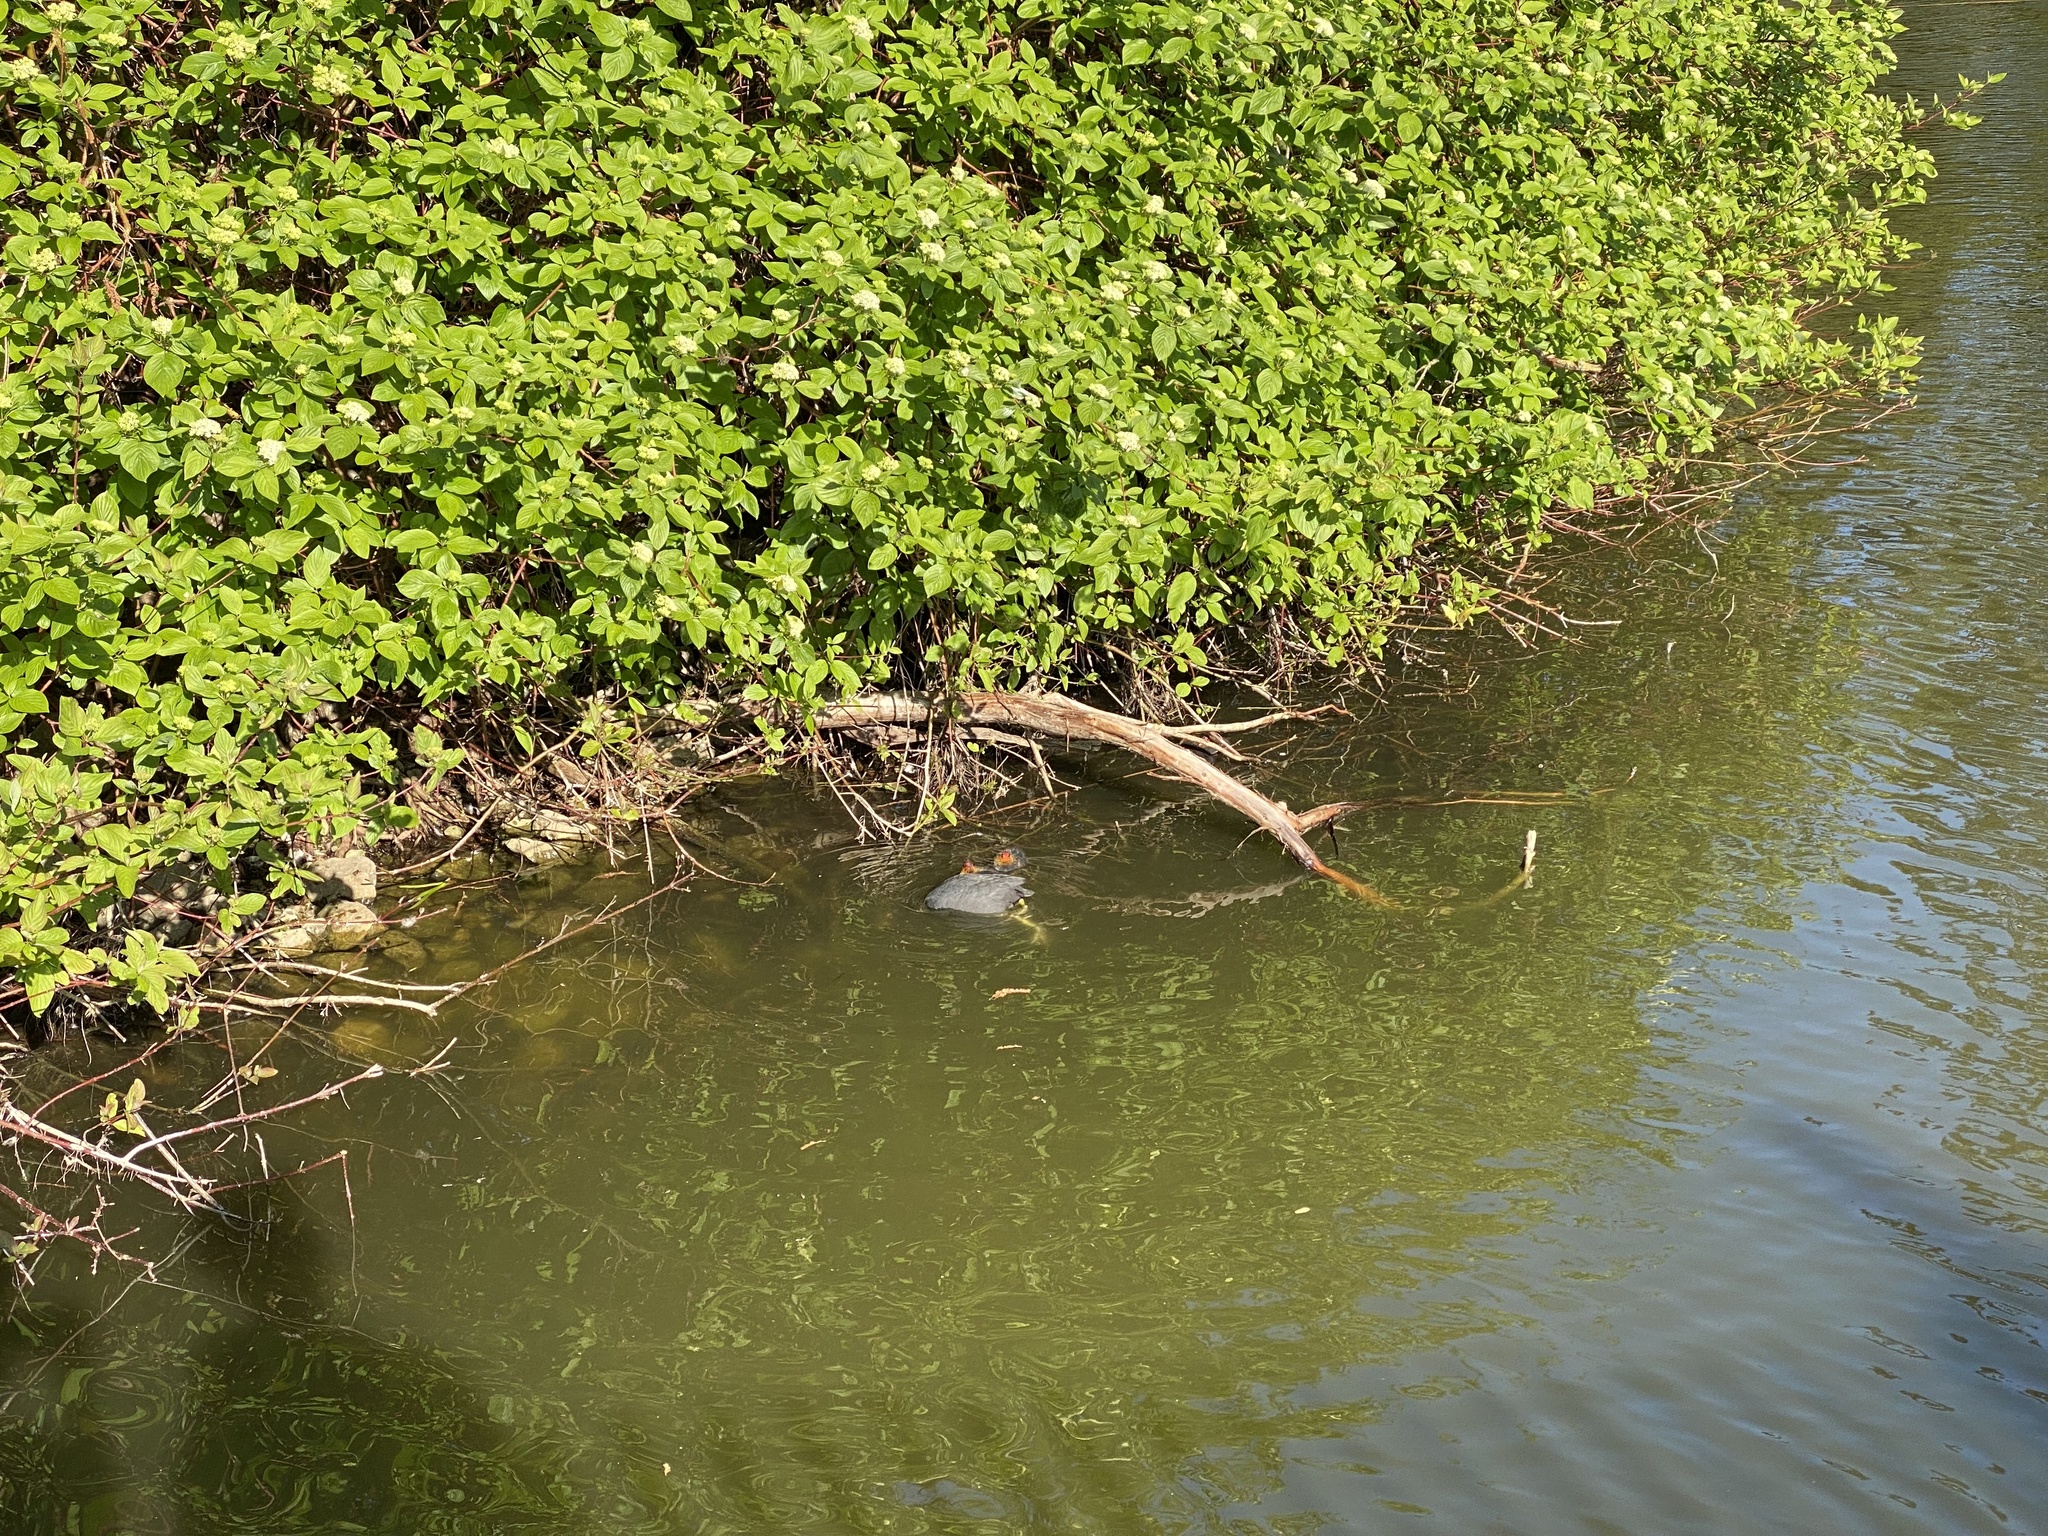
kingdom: Animalia
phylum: Chordata
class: Aves
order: Gruiformes
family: Rallidae
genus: Fulica
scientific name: Fulica atra
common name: Eurasian coot
